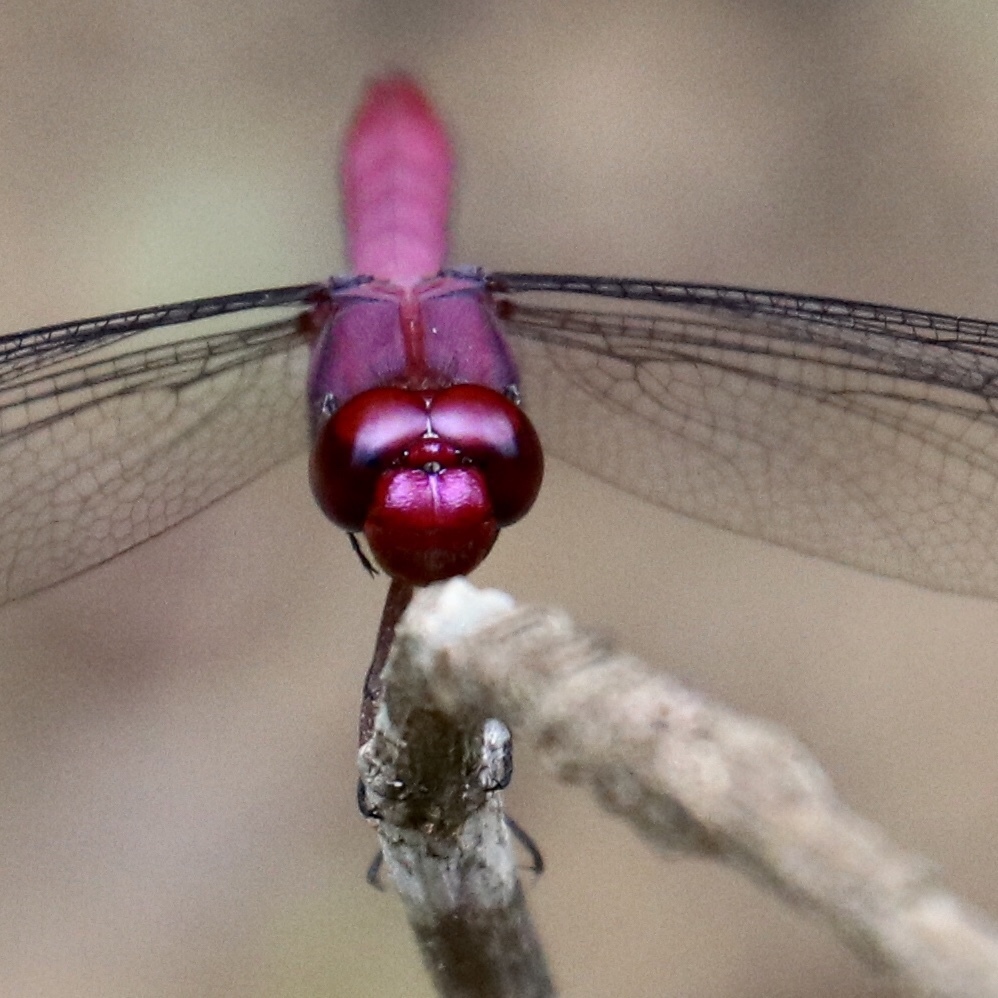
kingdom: Animalia
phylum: Arthropoda
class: Insecta
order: Odonata
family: Libellulidae
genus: Orthemis
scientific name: Orthemis discolor
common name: Carmine skimmer
